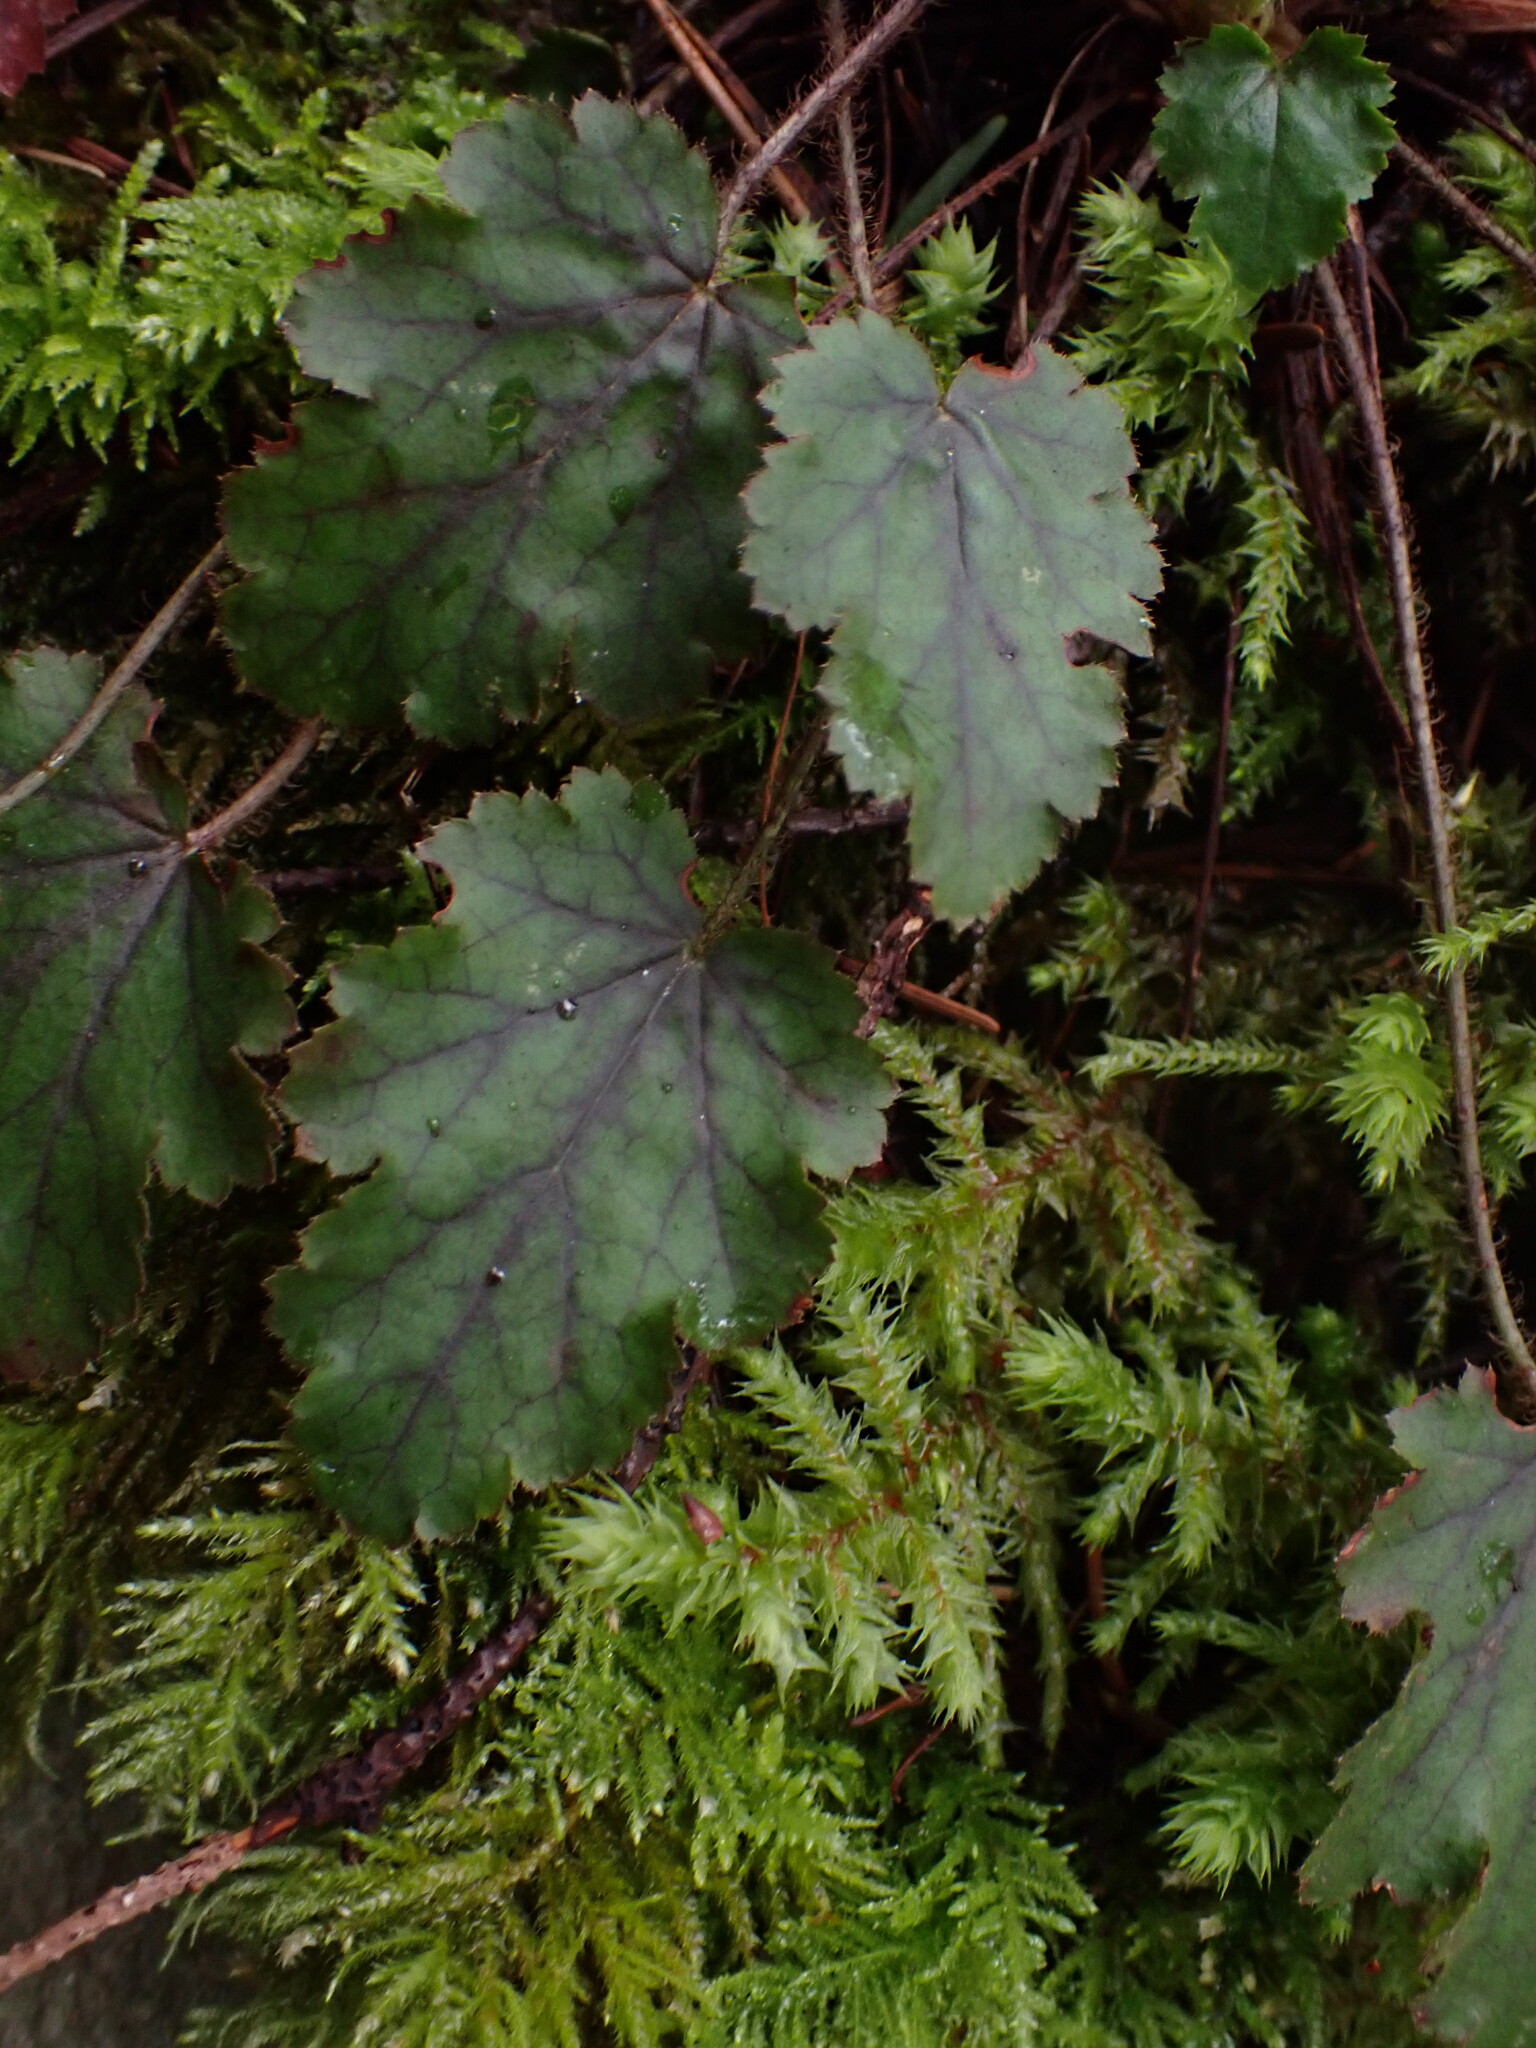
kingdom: Plantae
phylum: Tracheophyta
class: Magnoliopsida
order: Saxifragales
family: Saxifragaceae
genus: Heuchera
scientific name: Heuchera micrantha
